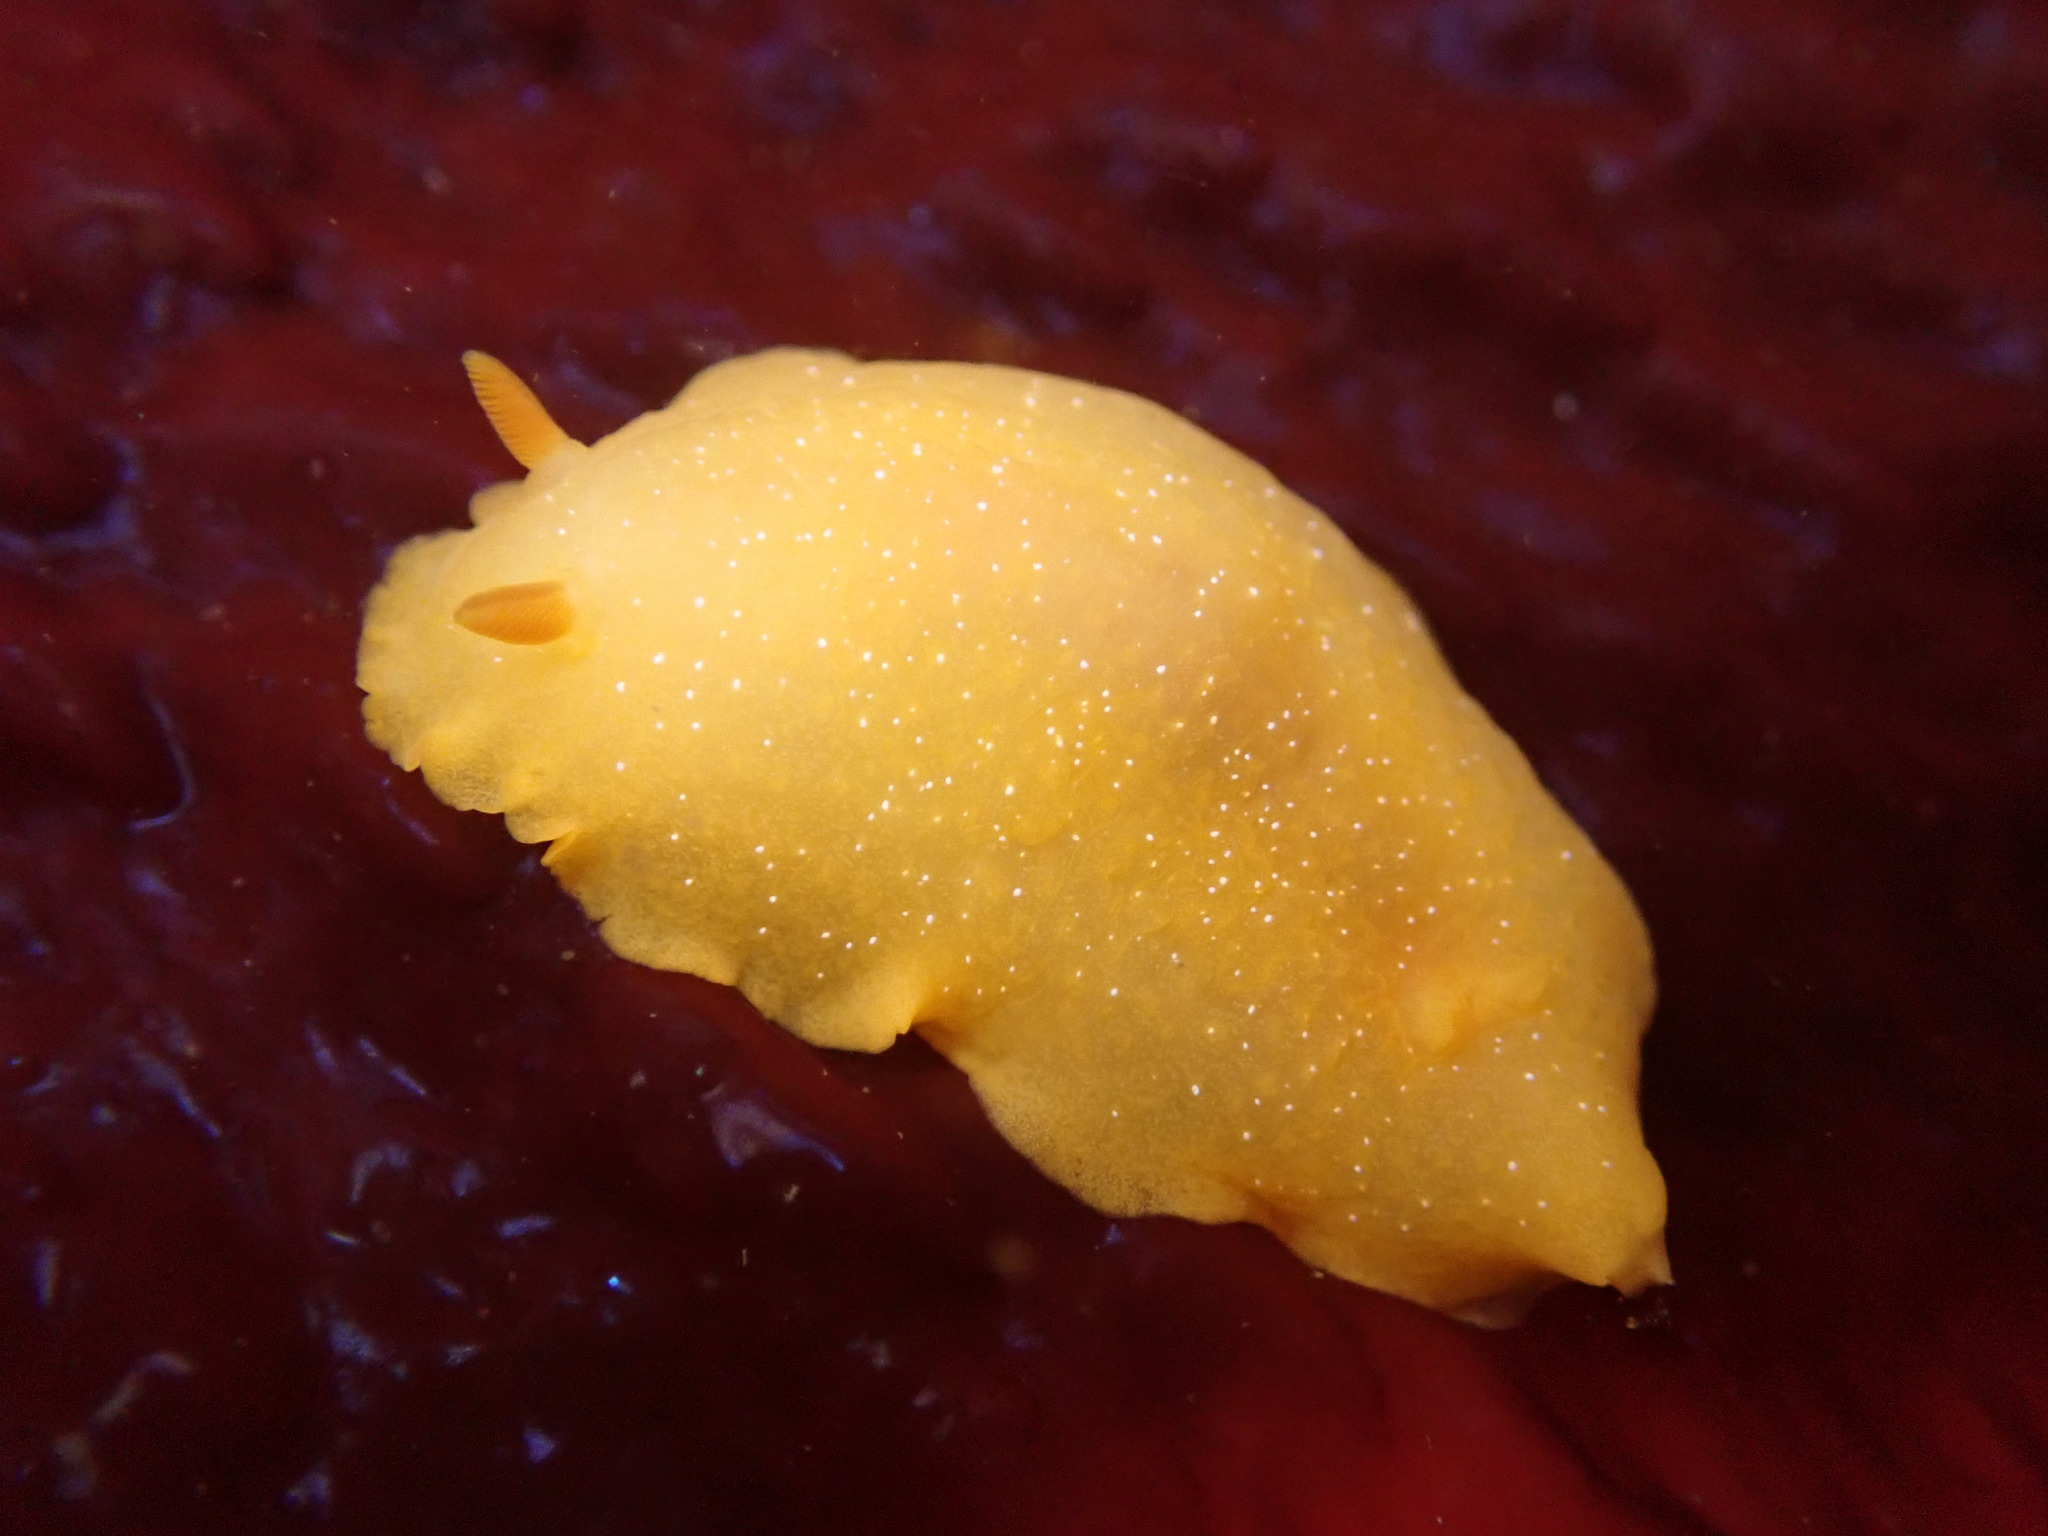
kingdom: Animalia
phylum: Mollusca
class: Gastropoda
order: Nudibranchia
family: Dendrodorididae
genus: Doriopsilla
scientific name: Doriopsilla fulva
